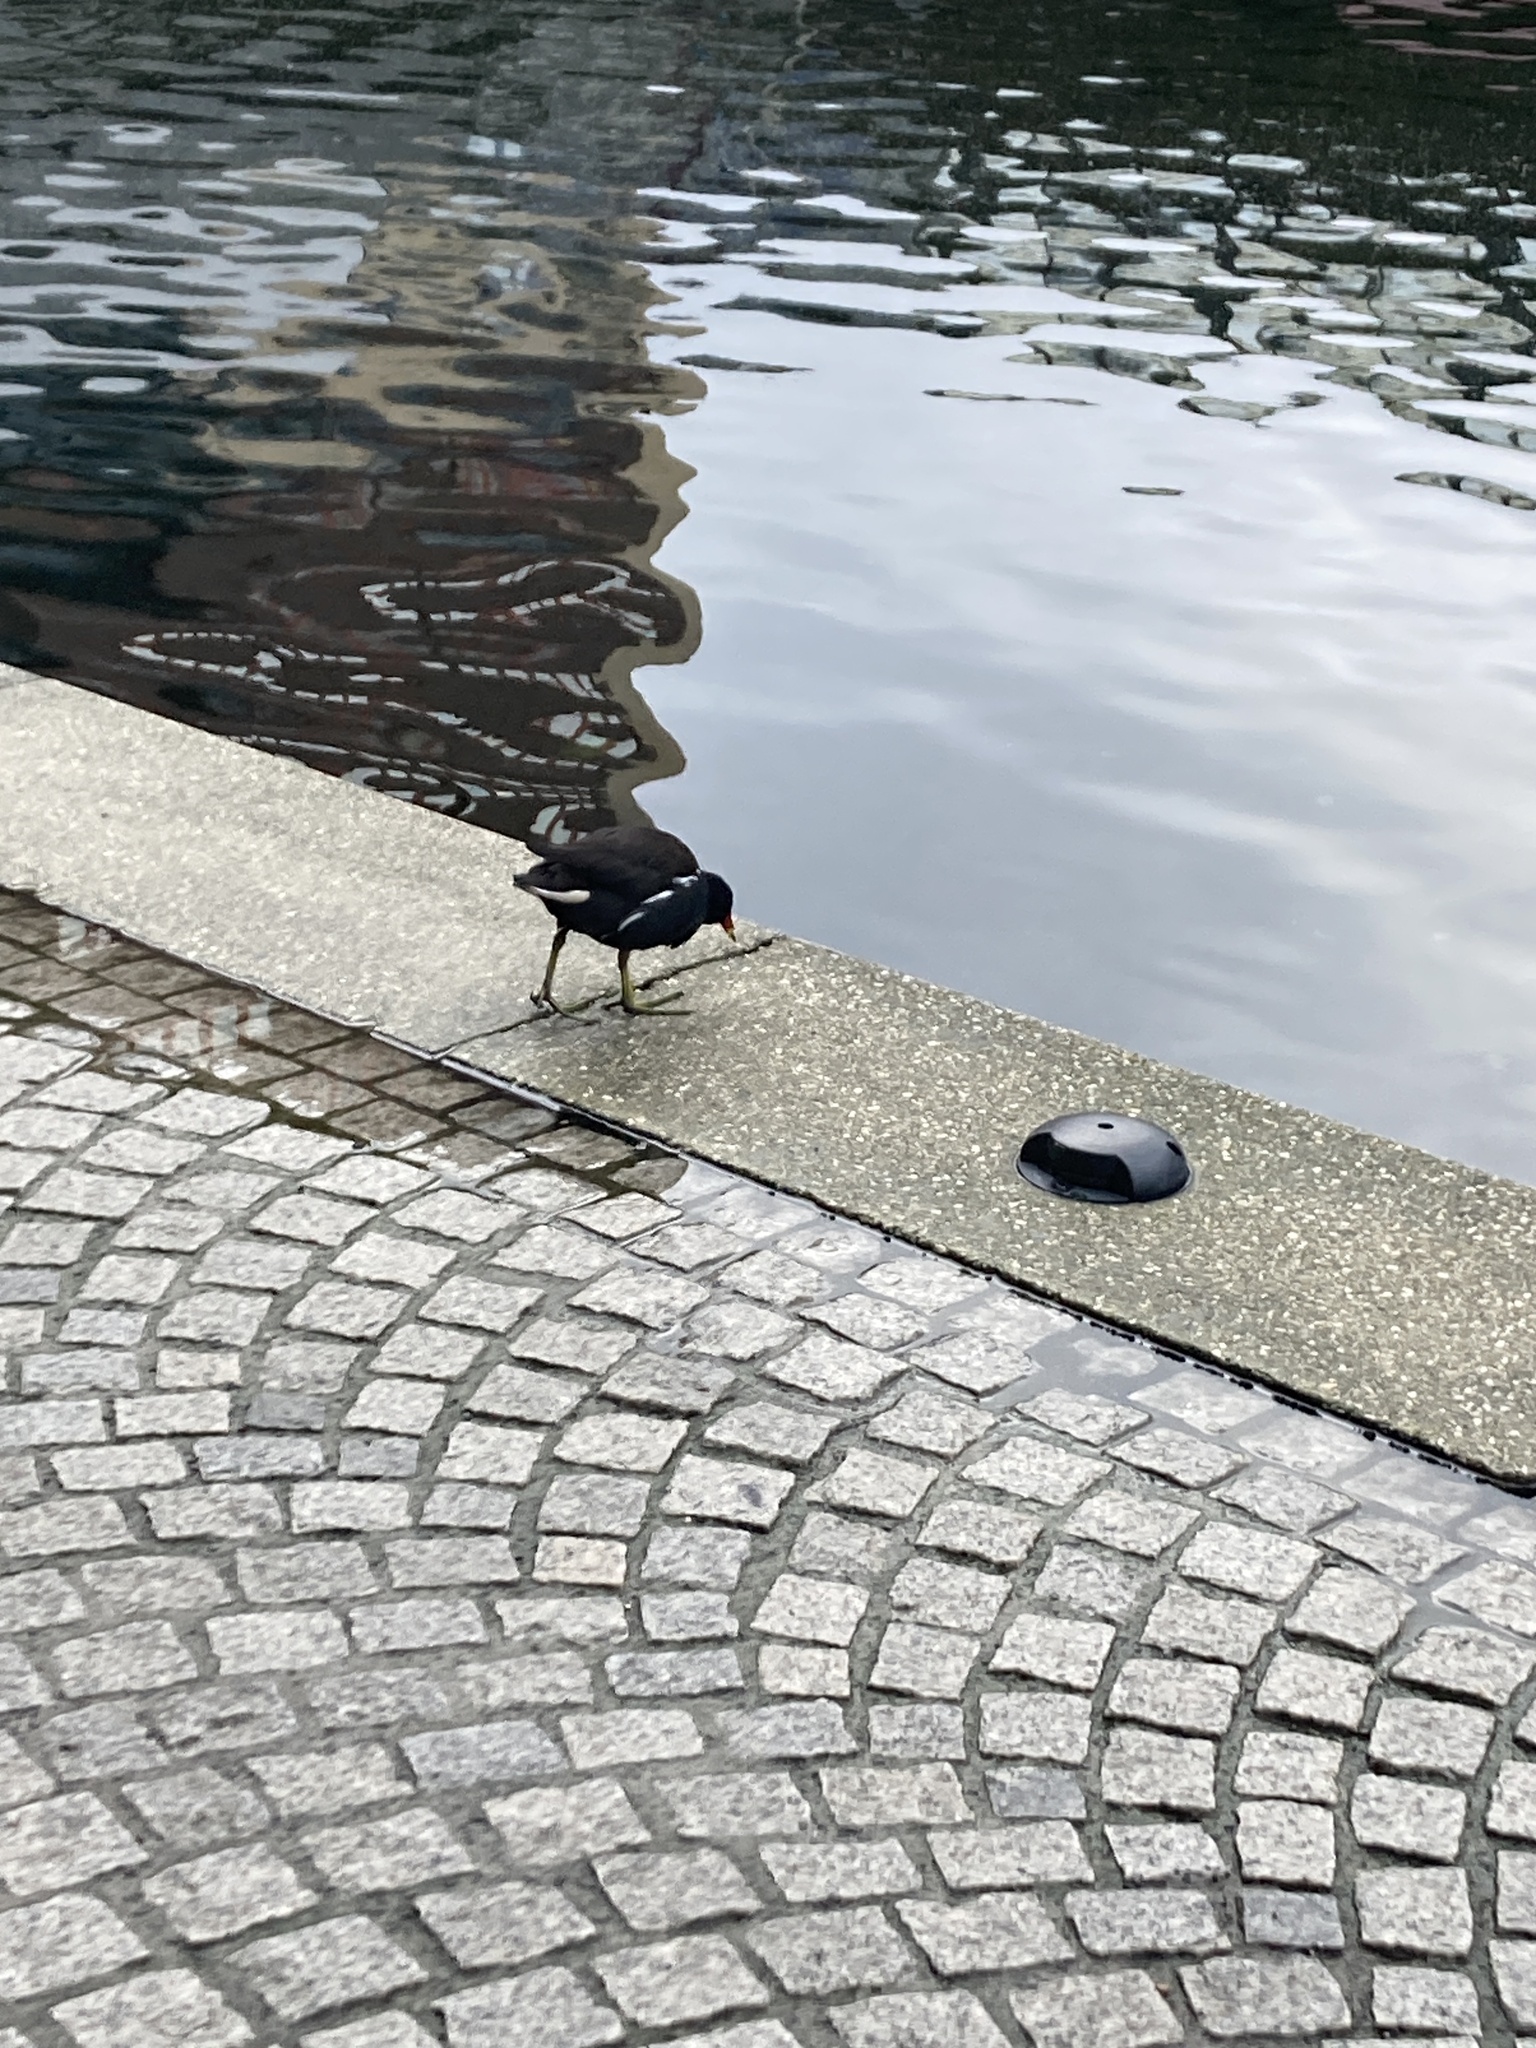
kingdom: Animalia
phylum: Chordata
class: Aves
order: Gruiformes
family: Rallidae
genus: Gallinula
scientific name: Gallinula chloropus
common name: Common moorhen
